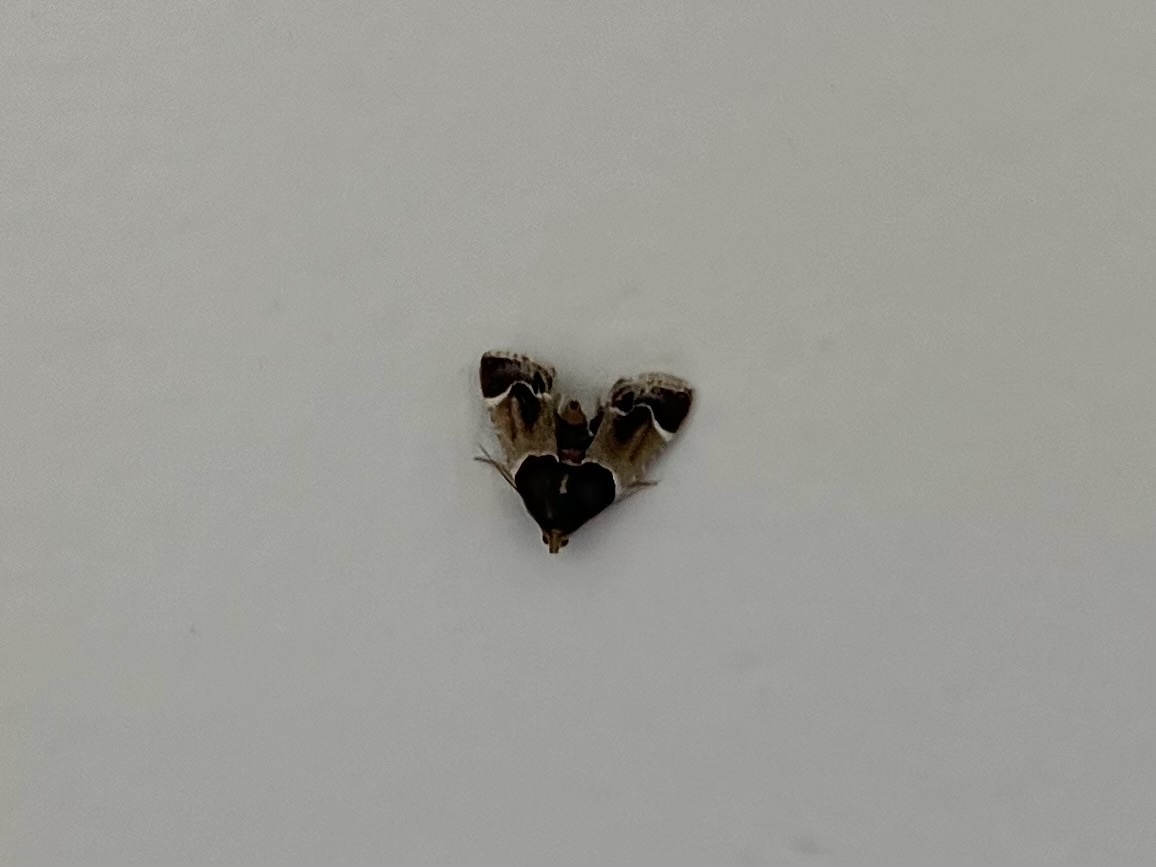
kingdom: Animalia
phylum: Arthropoda
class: Insecta
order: Lepidoptera
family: Pyralidae
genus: Pyralis
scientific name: Pyralis farinalis
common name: Meal moth
